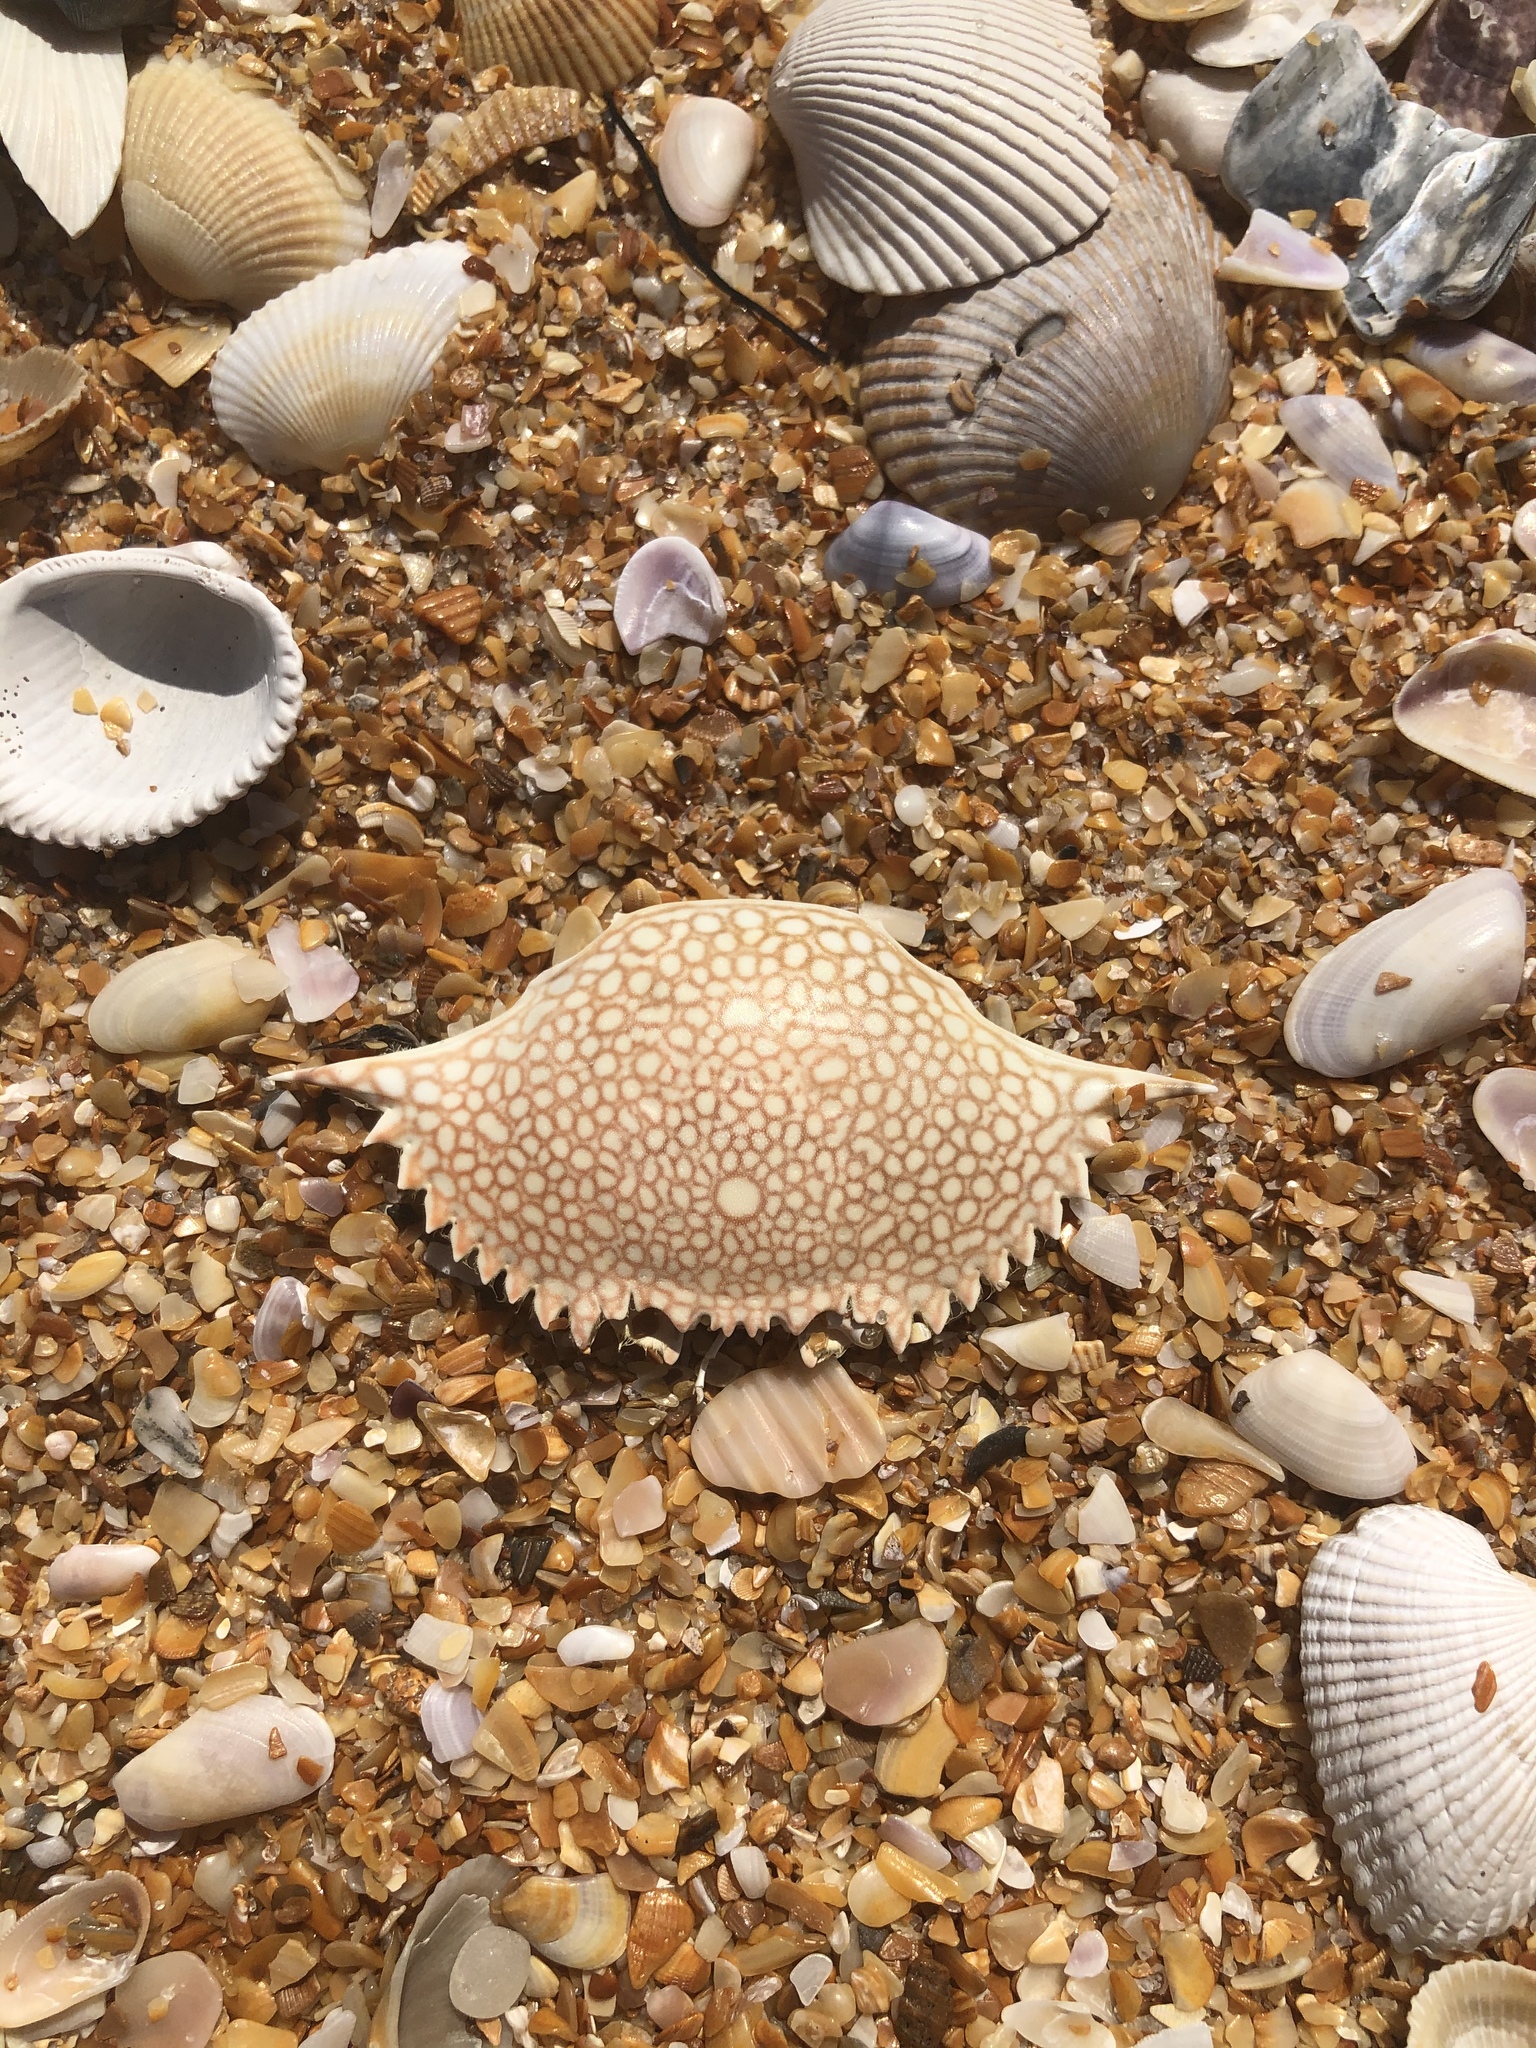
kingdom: Animalia
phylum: Arthropoda
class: Malacostraca
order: Decapoda
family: Portunidae
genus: Arenaeus
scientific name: Arenaeus cribrarius
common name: Speckled crab
